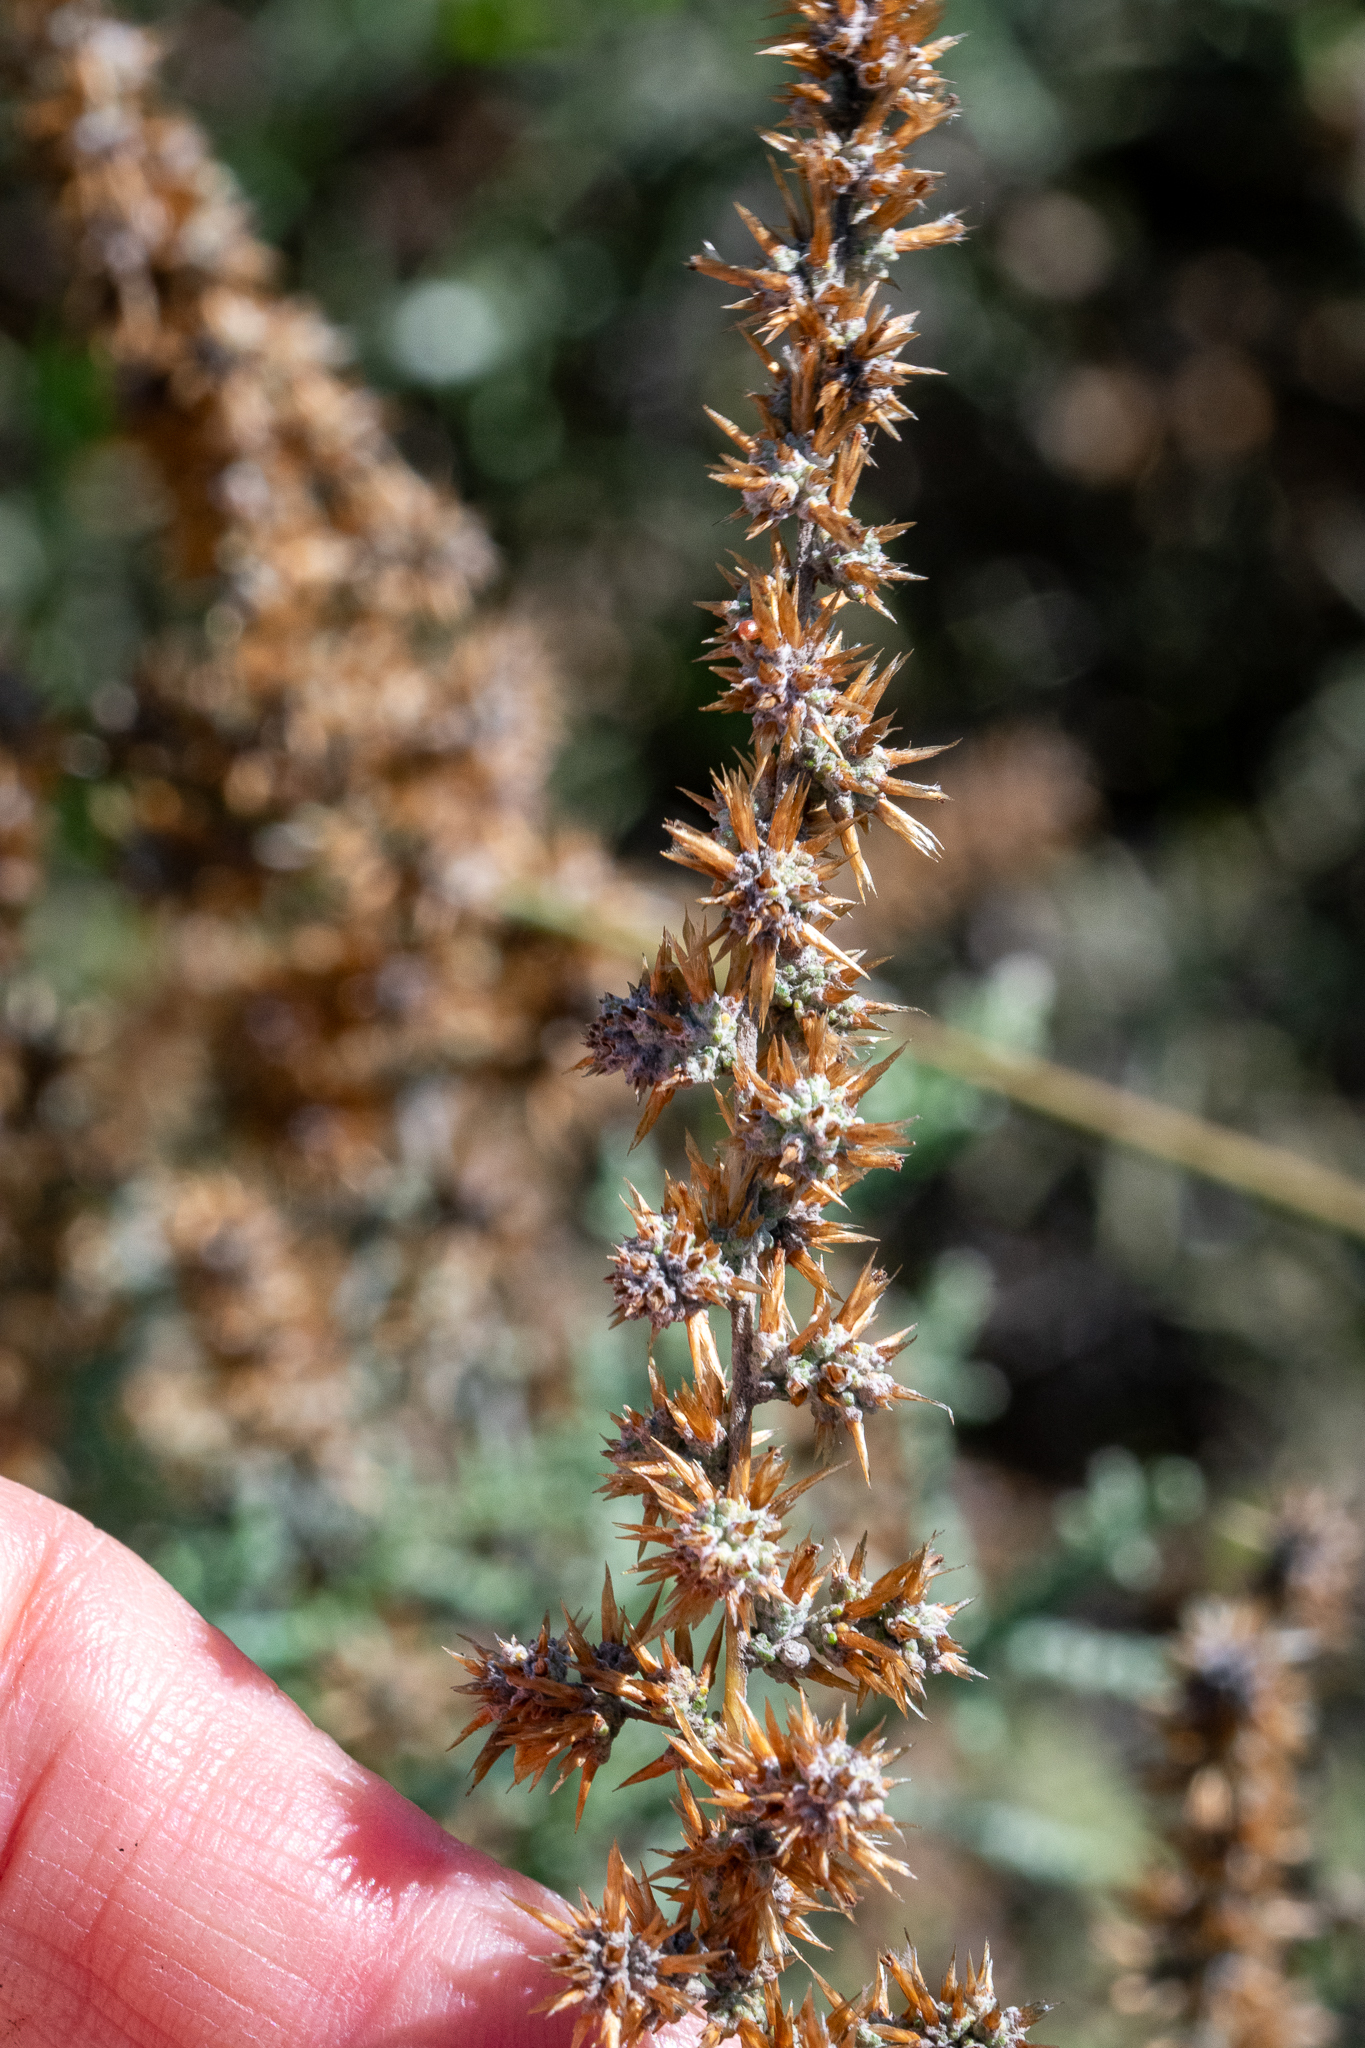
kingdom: Plantae
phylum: Tracheophyta
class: Magnoliopsida
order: Asterales
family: Asteraceae
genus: Seriphium
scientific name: Seriphium plumosum
